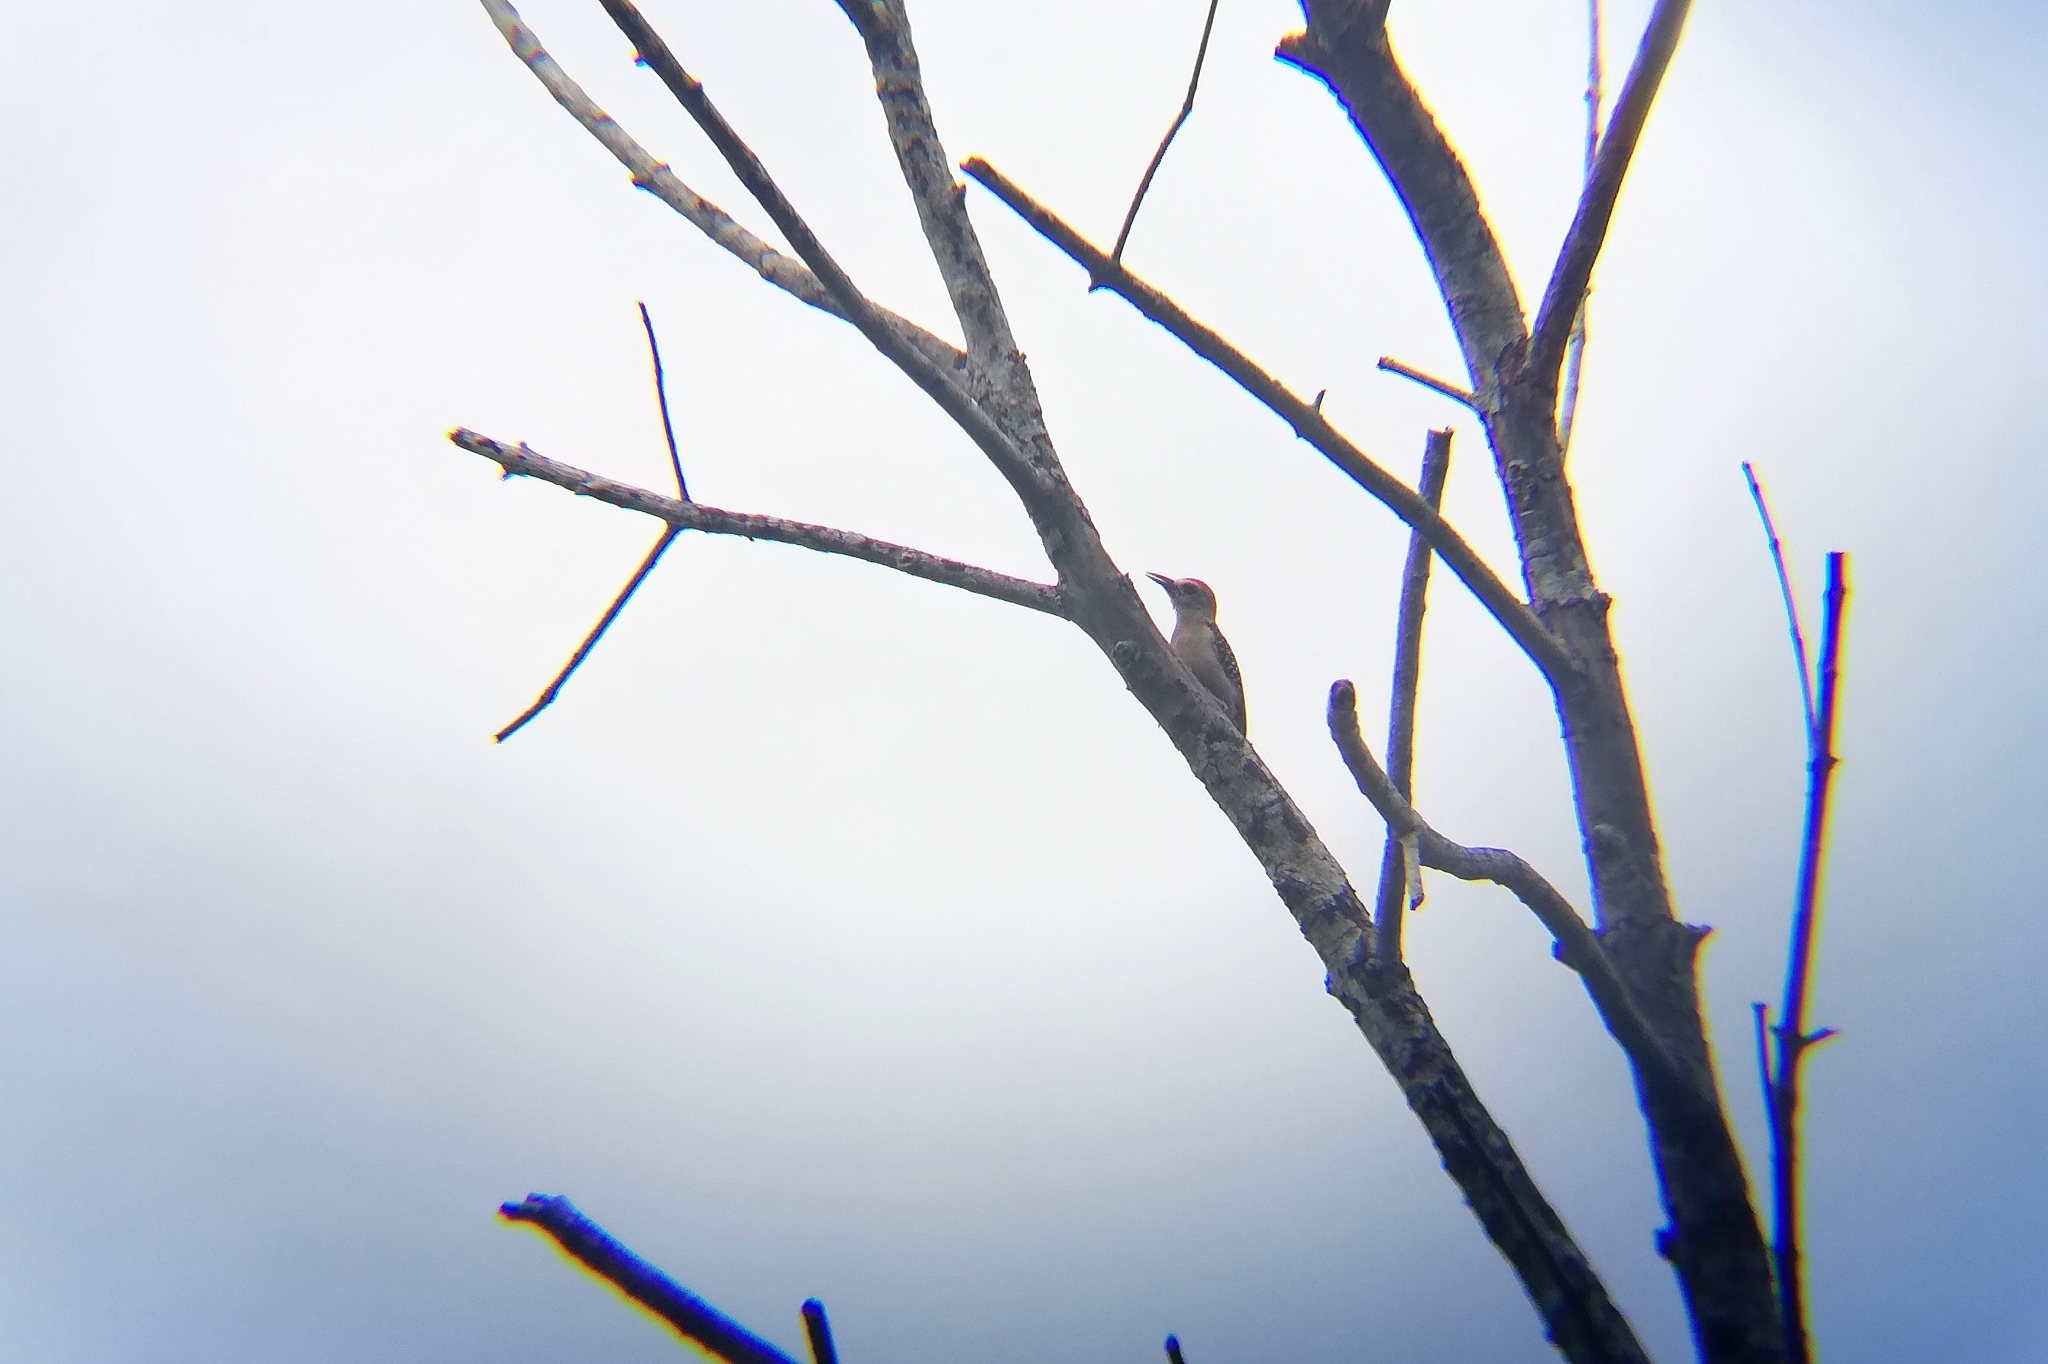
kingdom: Animalia
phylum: Chordata
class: Aves
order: Piciformes
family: Picidae
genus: Melanerpes
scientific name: Melanerpes rubricapillus
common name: Red-crowned woodpecker
